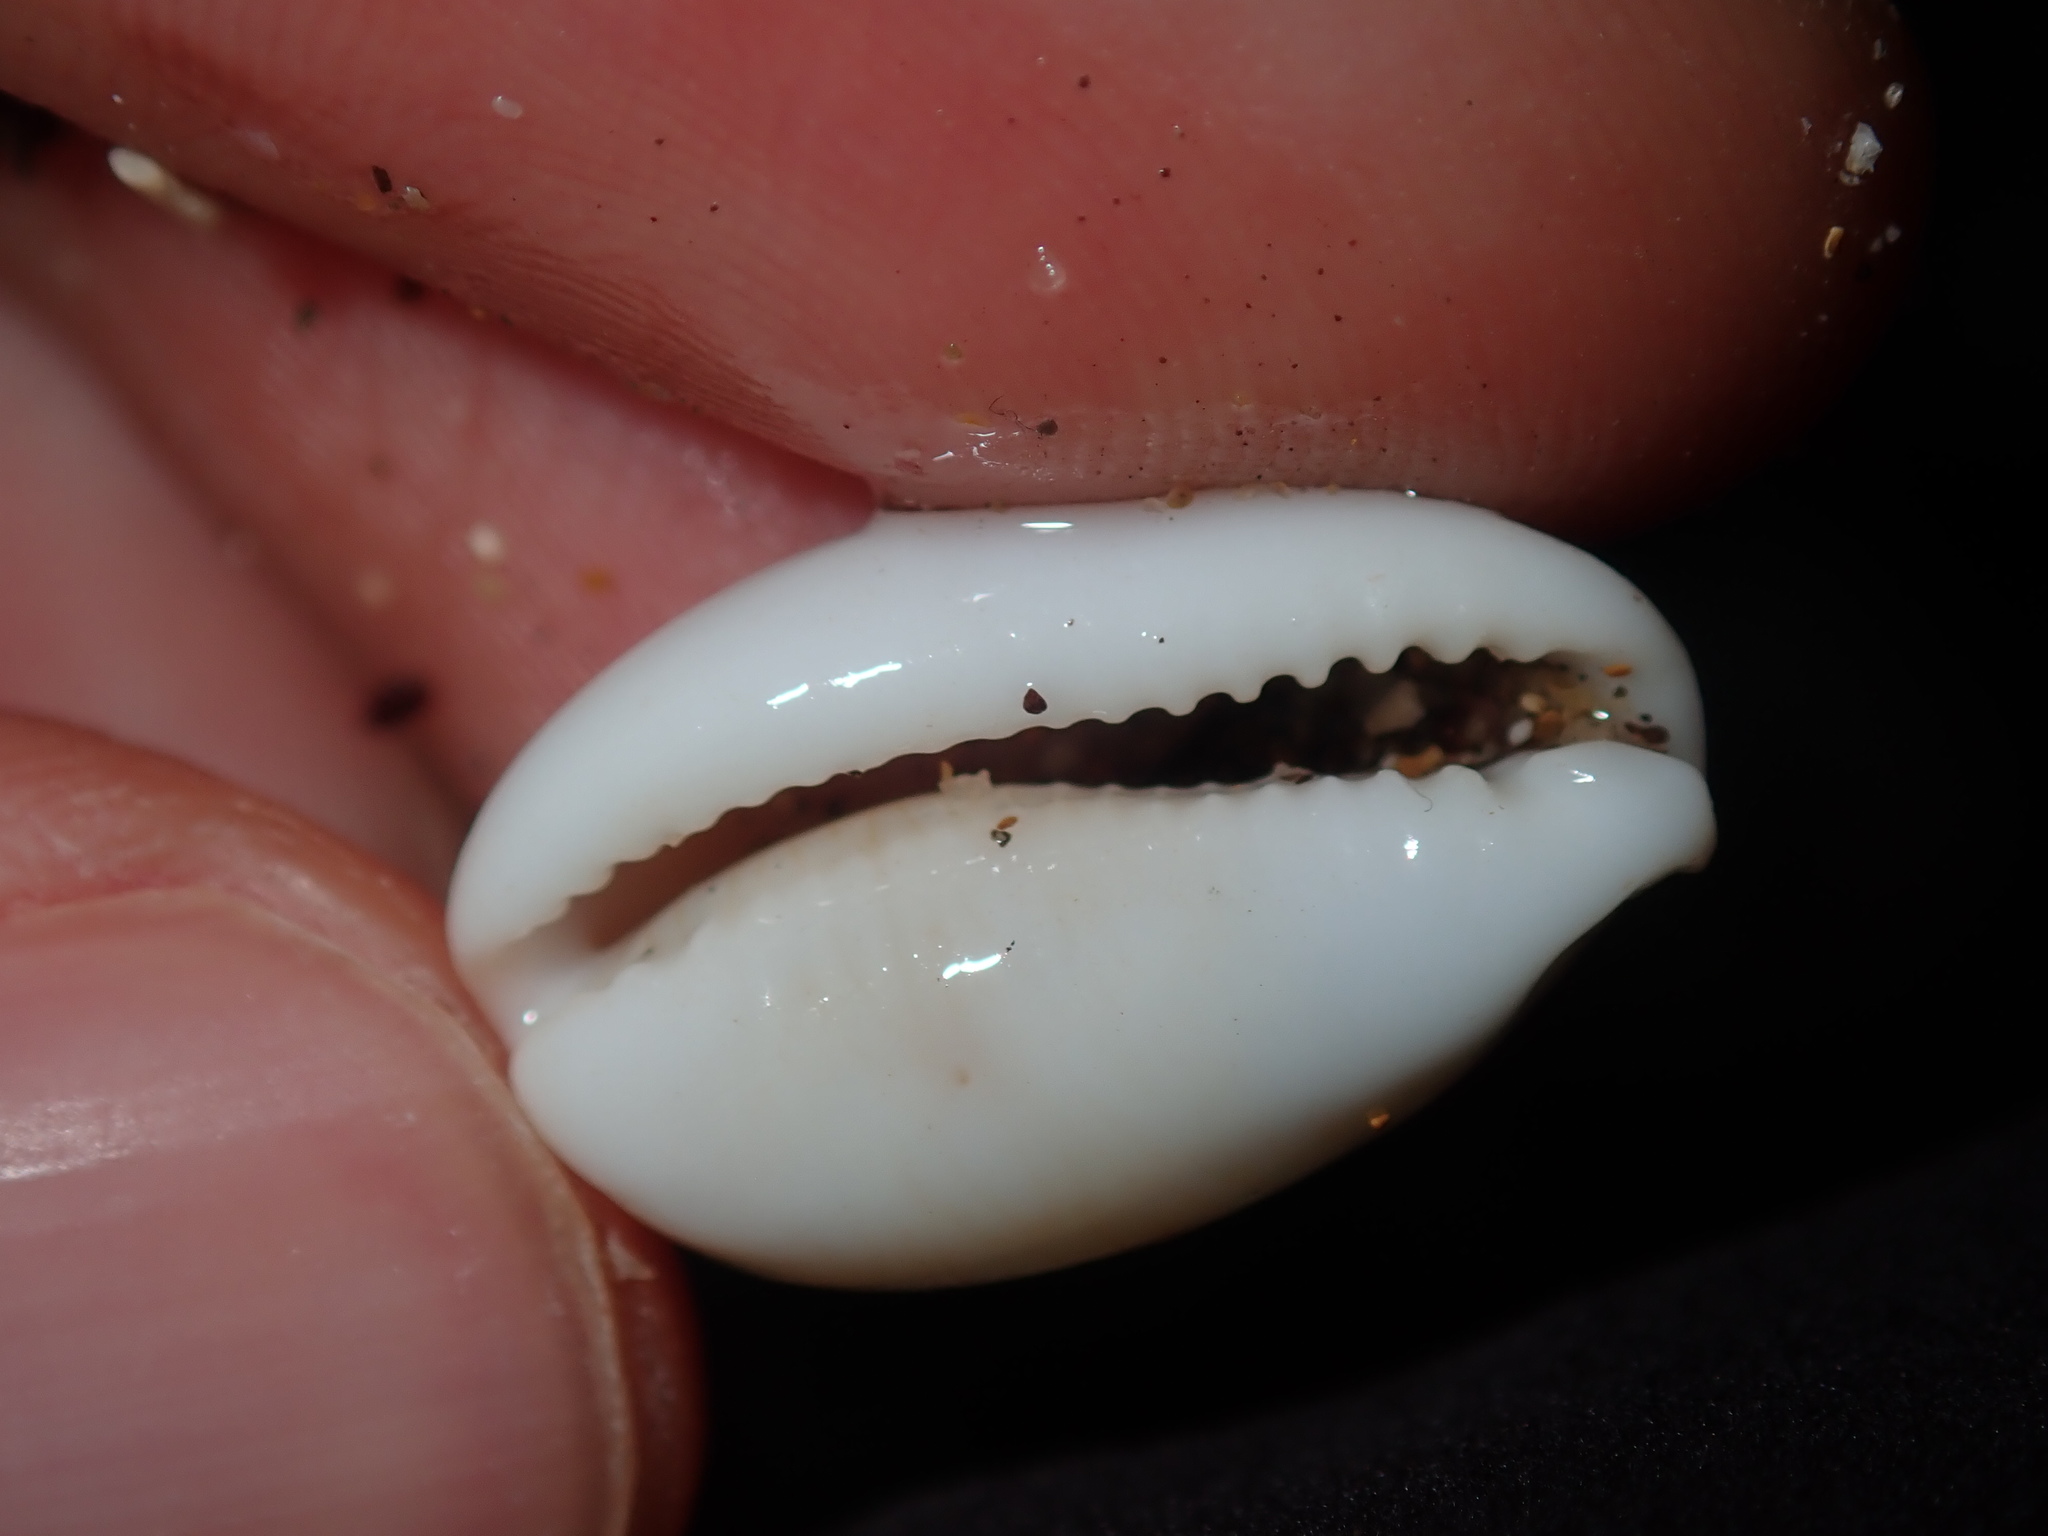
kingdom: Animalia
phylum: Mollusca
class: Gastropoda
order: Littorinimorpha
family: Cypraeidae
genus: Palmadusta
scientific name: Palmadusta clandestina
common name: Cowrie
